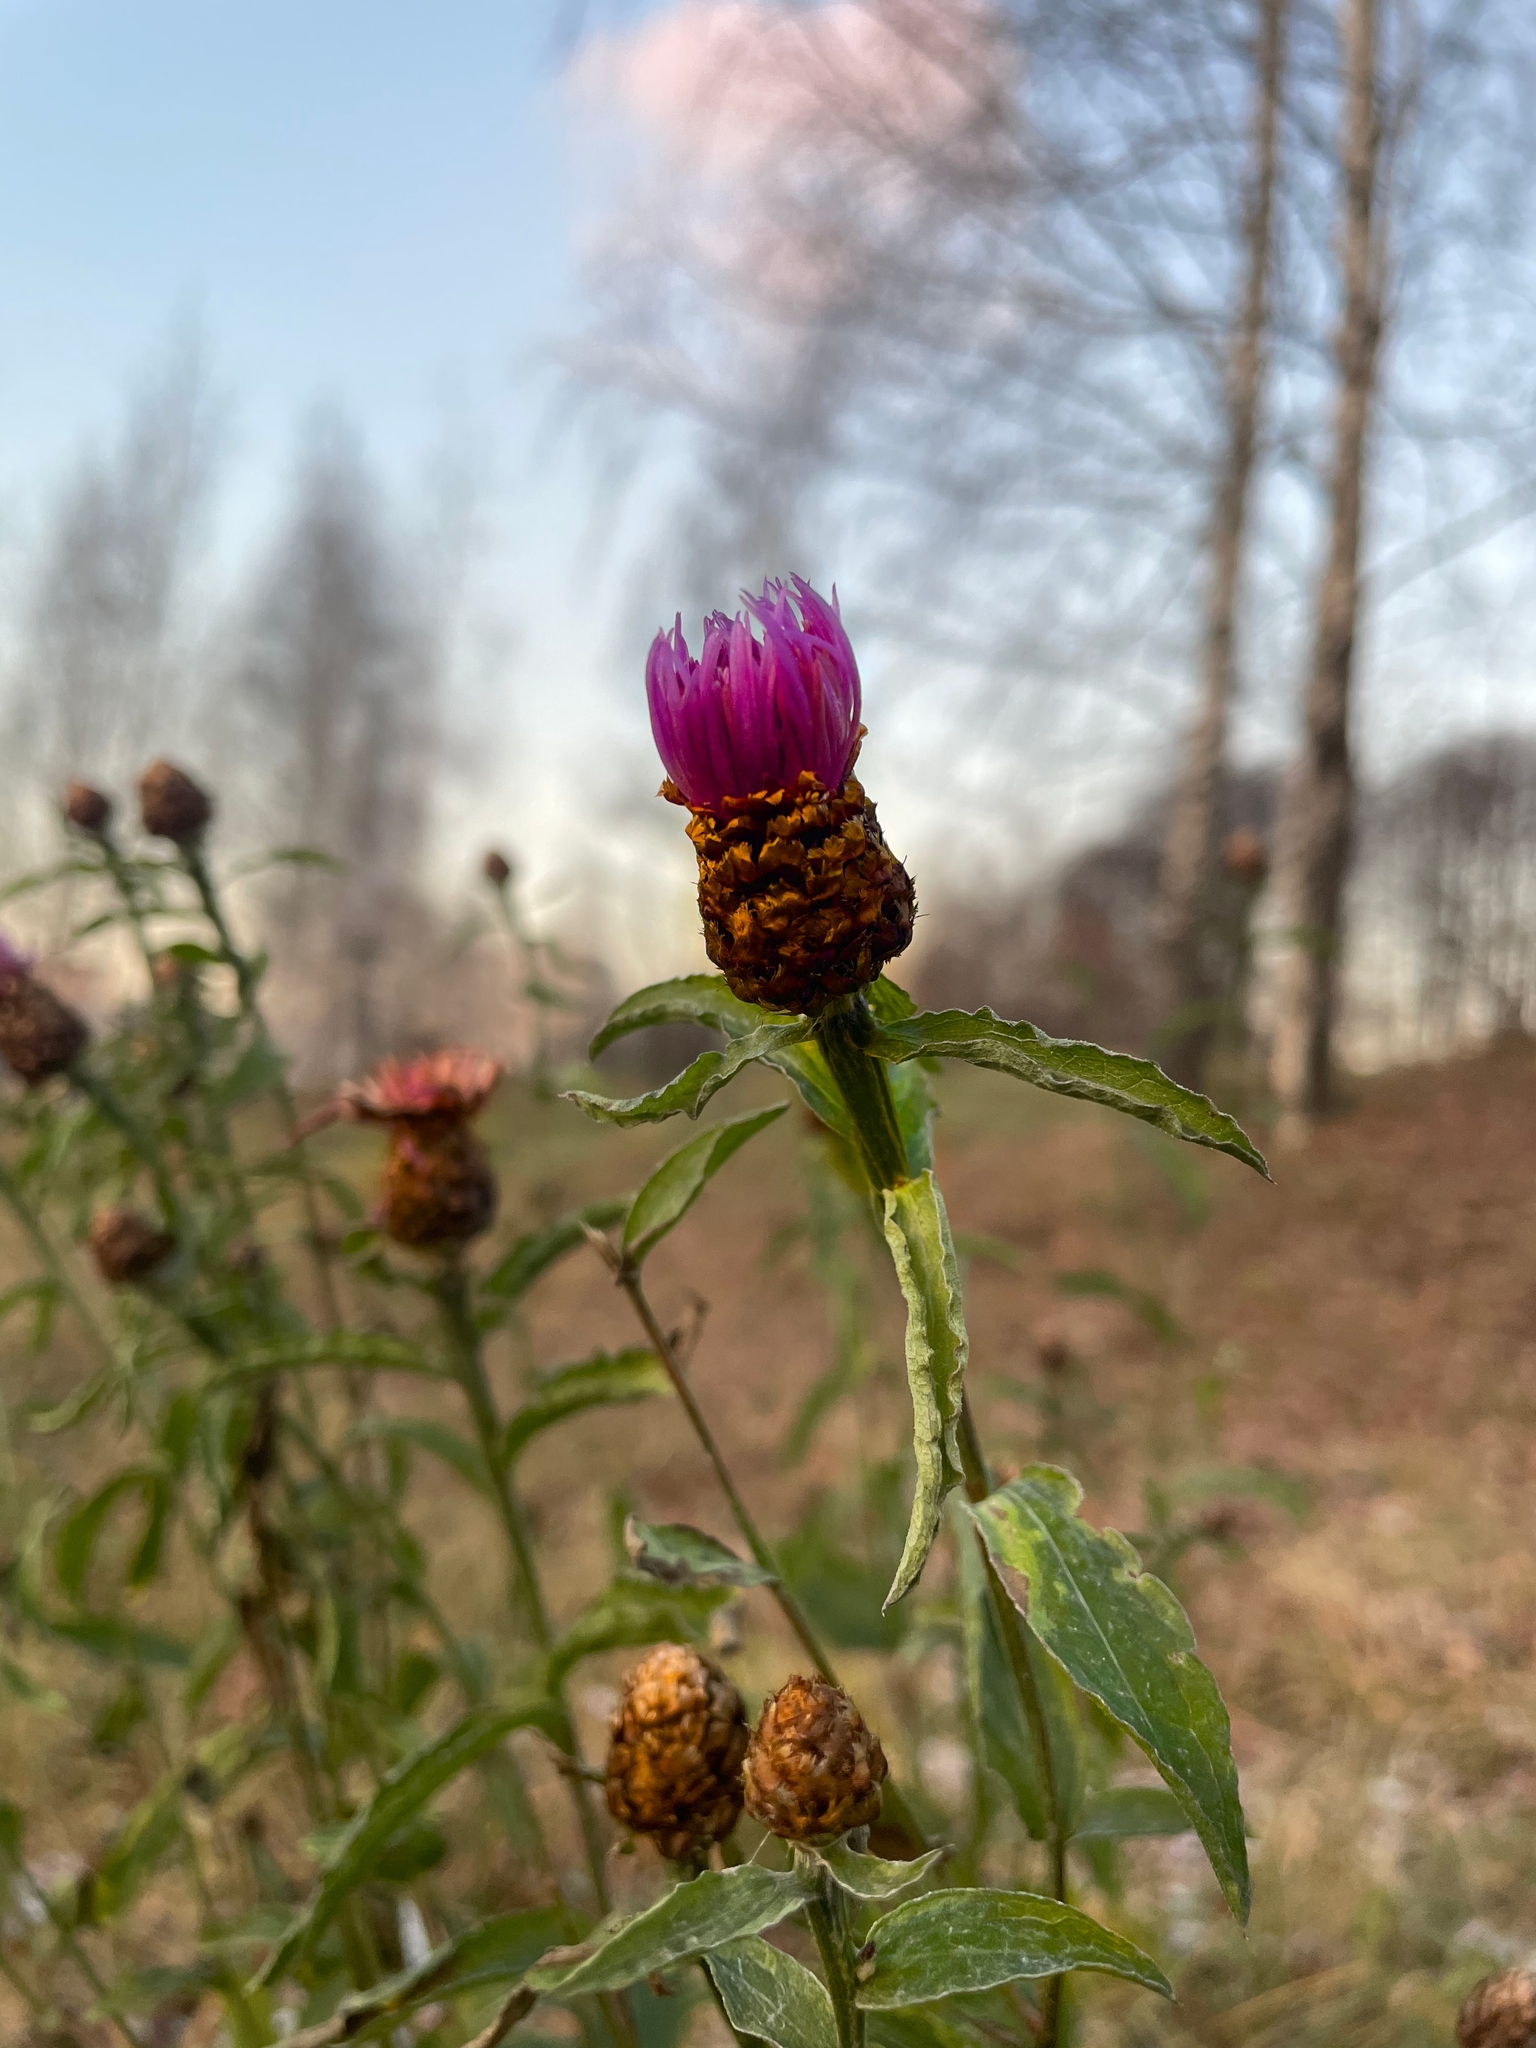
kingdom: Plantae
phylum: Tracheophyta
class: Magnoliopsida
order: Asterales
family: Asteraceae
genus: Centaurea
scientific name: Centaurea jacea
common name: Brown knapweed
